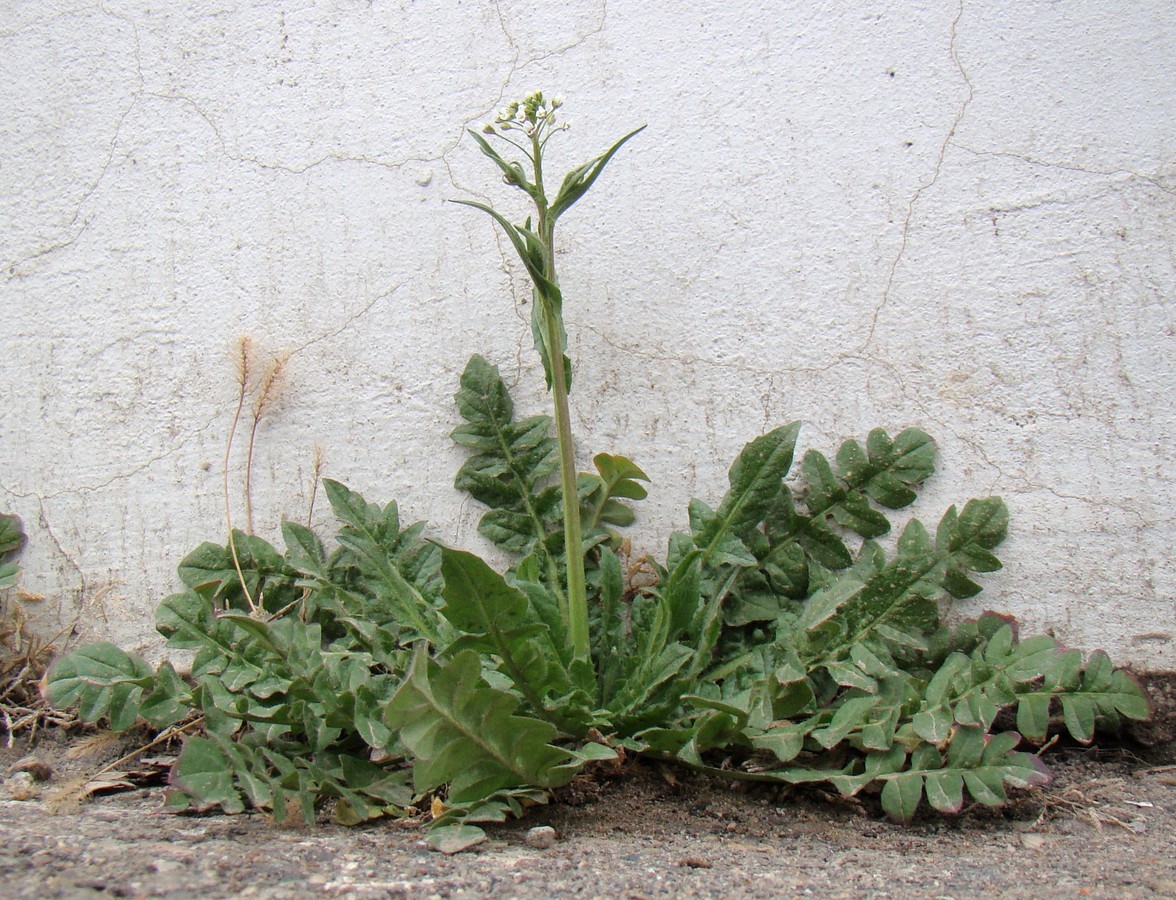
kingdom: Plantae
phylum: Tracheophyta
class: Magnoliopsida
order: Brassicales
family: Brassicaceae
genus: Capsella
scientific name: Capsella bursa-pastoris
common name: Shepherd's purse
